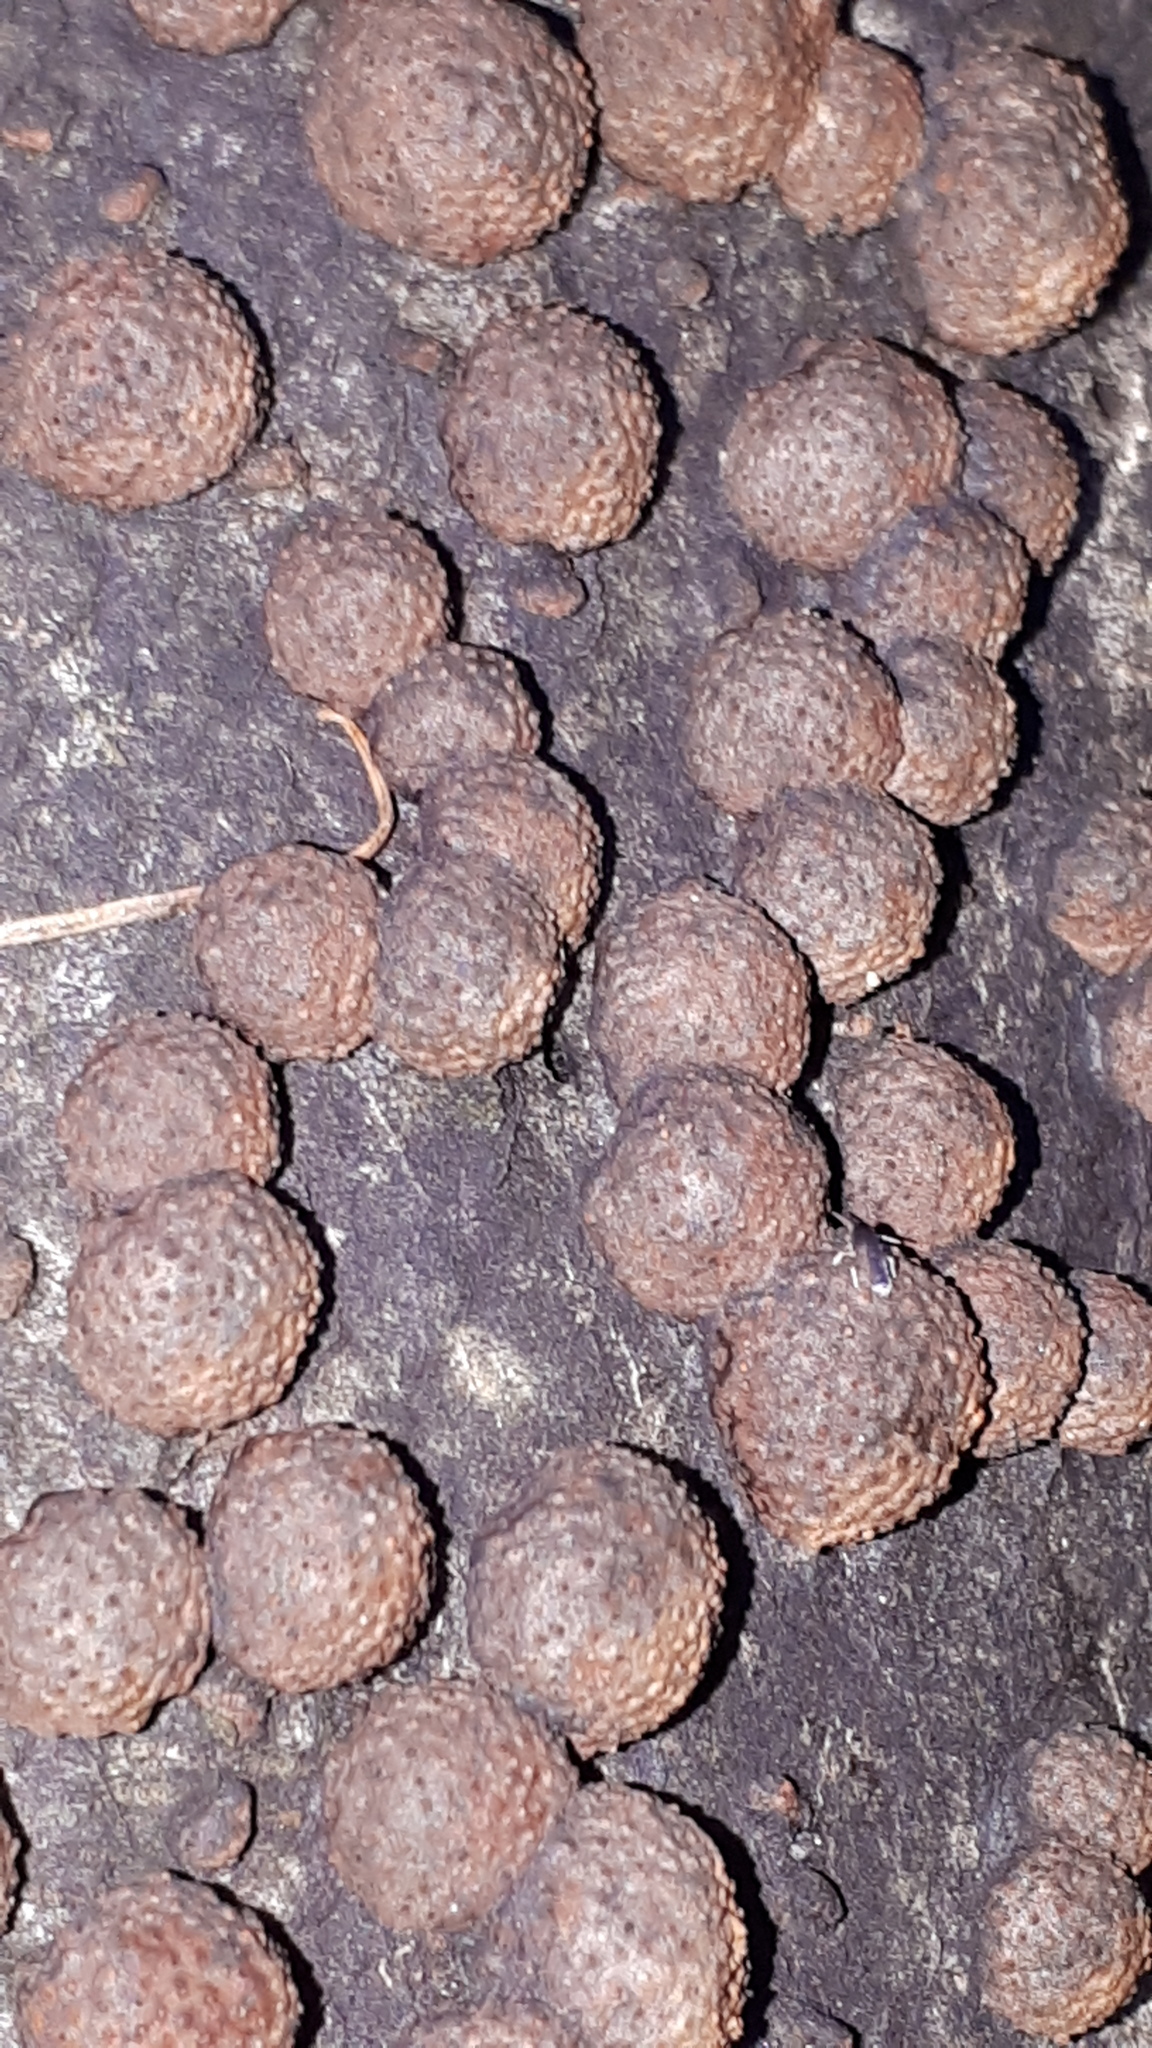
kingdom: Fungi
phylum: Ascomycota
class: Sordariomycetes
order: Xylariales
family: Hypoxylaceae
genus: Hypoxylon
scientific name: Hypoxylon fragiforme
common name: Beech woodwart
